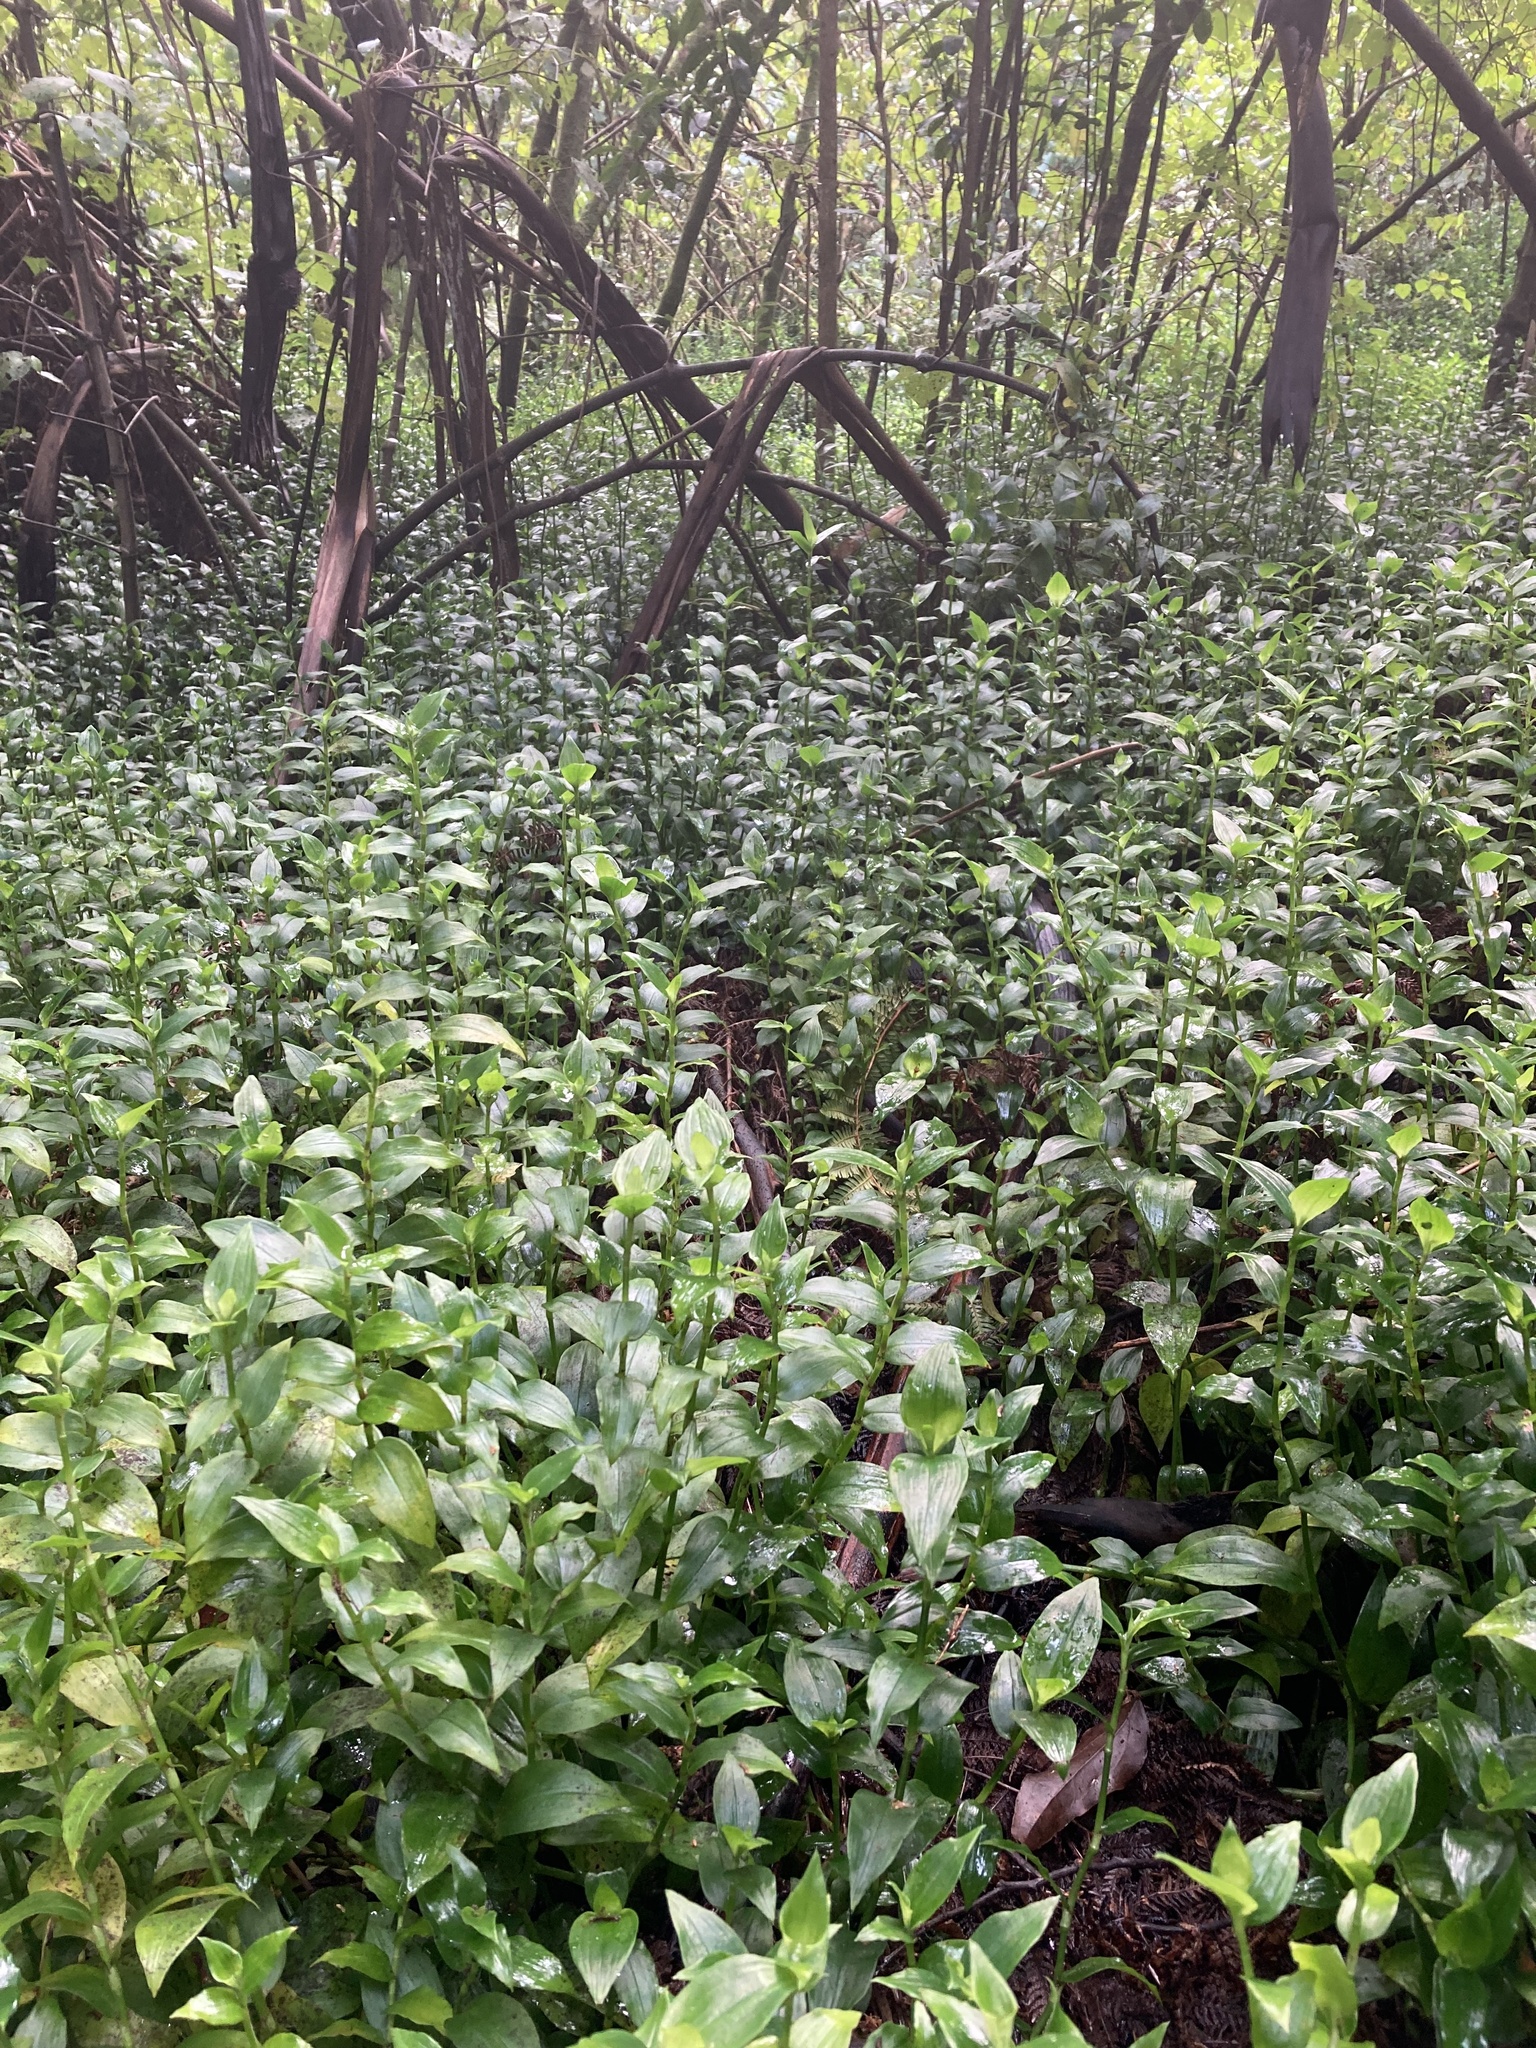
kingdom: Plantae
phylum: Tracheophyta
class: Liliopsida
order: Commelinales
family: Commelinaceae
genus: Tradescantia
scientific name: Tradescantia fluminensis
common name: Wandering-jew
